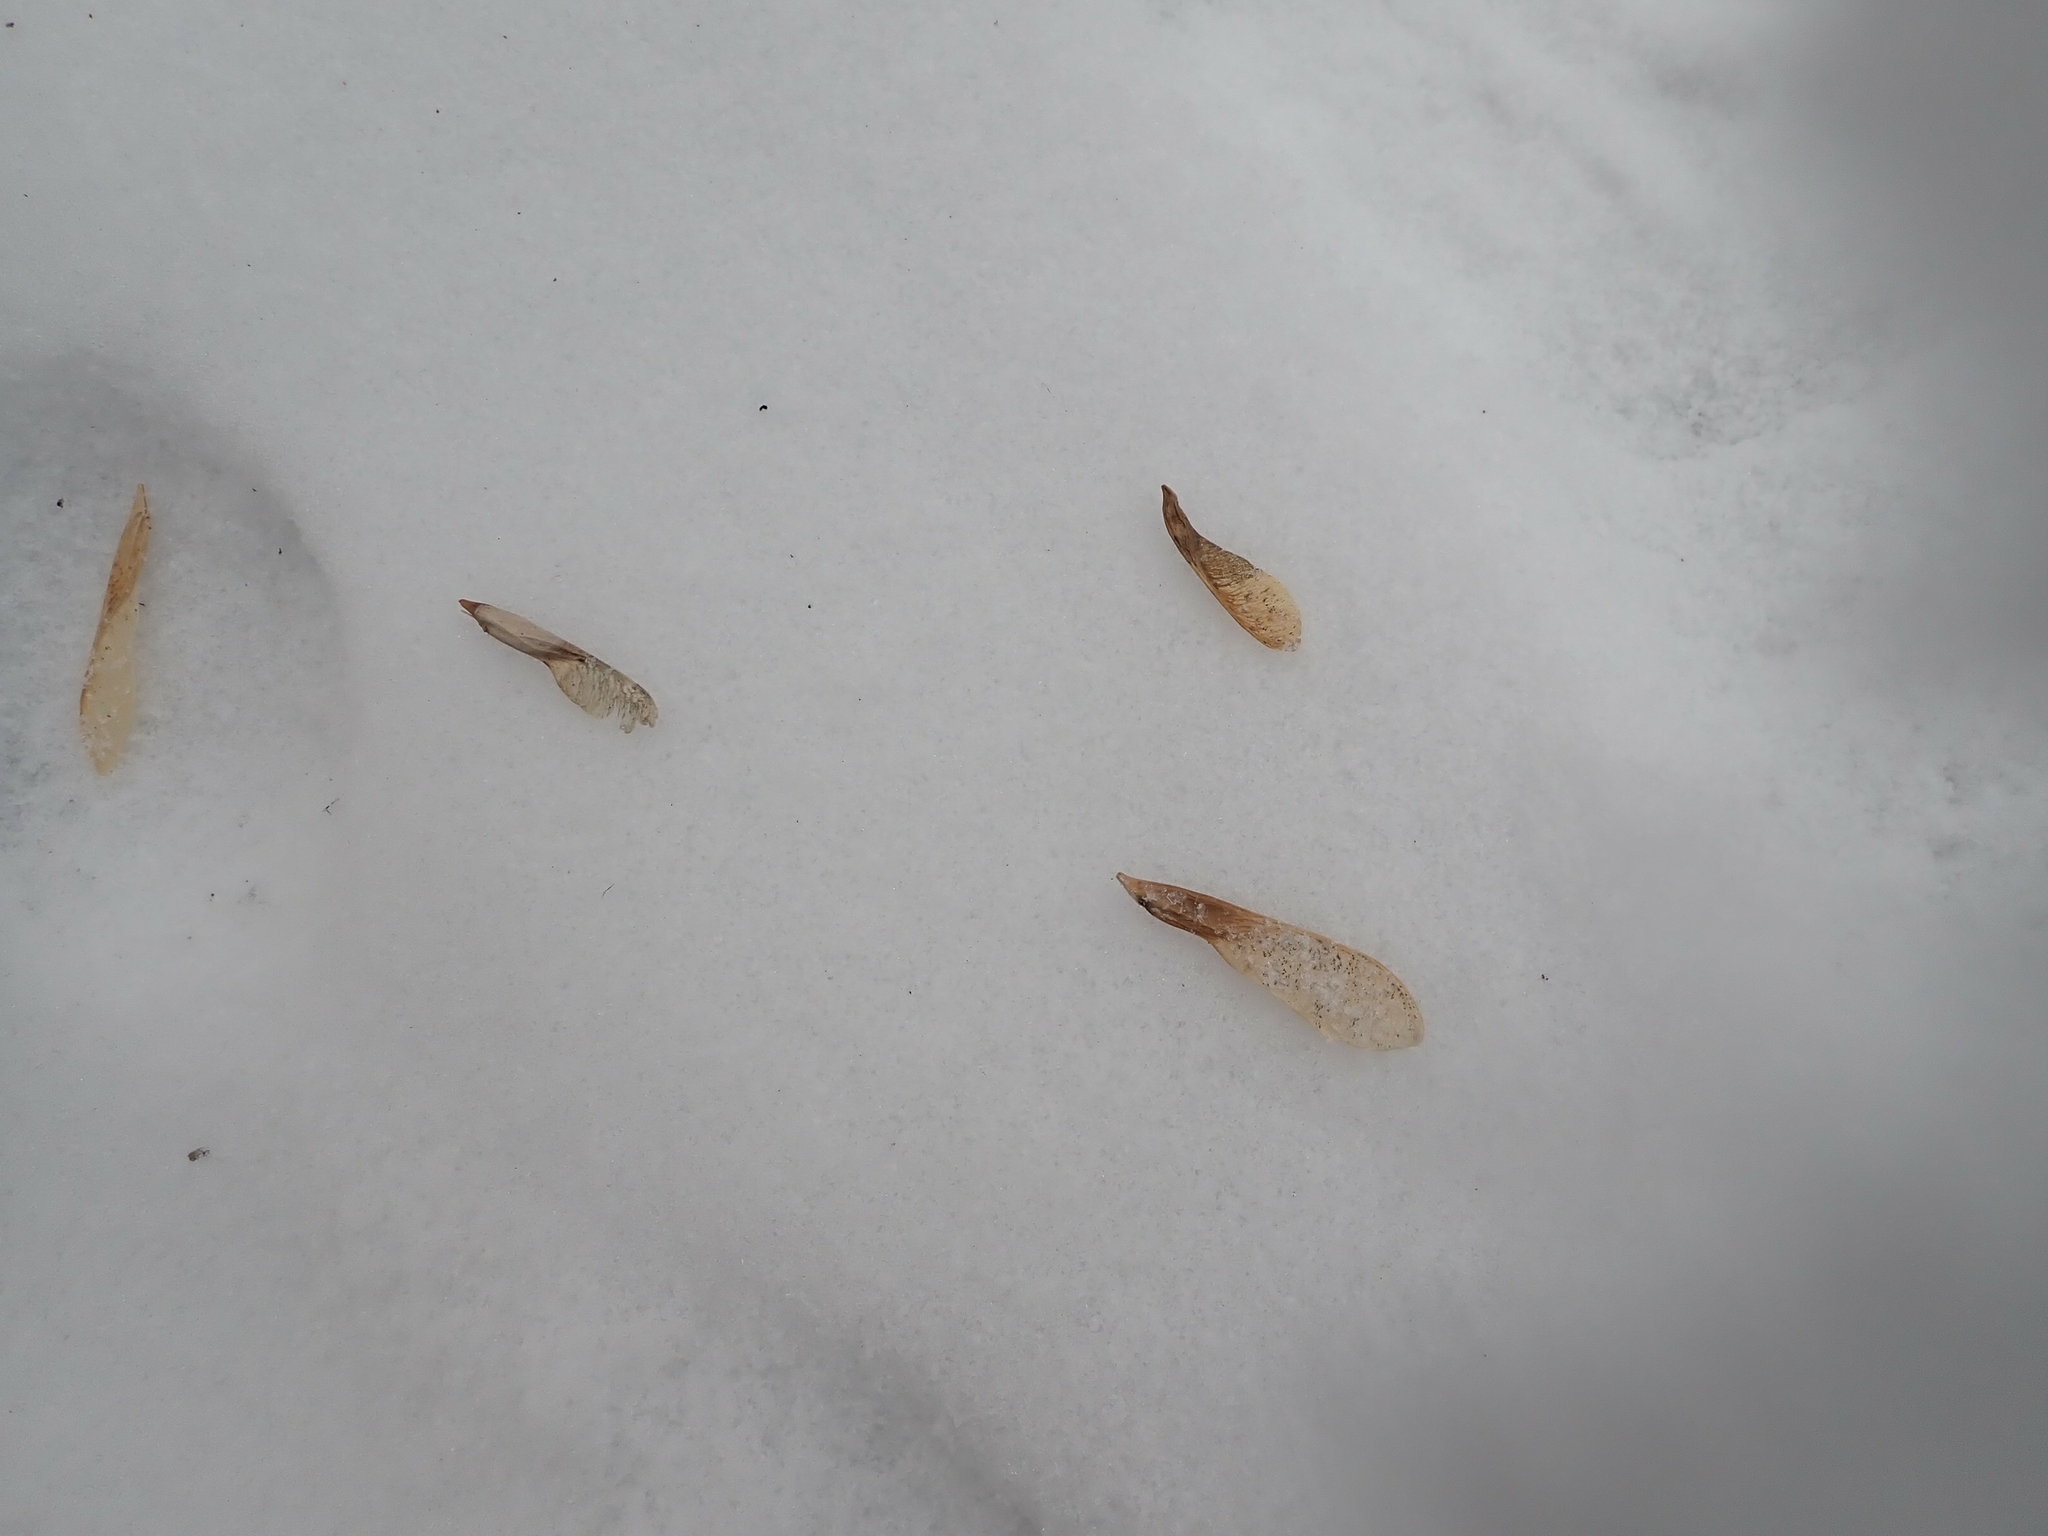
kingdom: Plantae
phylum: Tracheophyta
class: Magnoliopsida
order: Sapindales
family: Sapindaceae
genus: Acer
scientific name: Acer negundo
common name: Ashleaf maple
